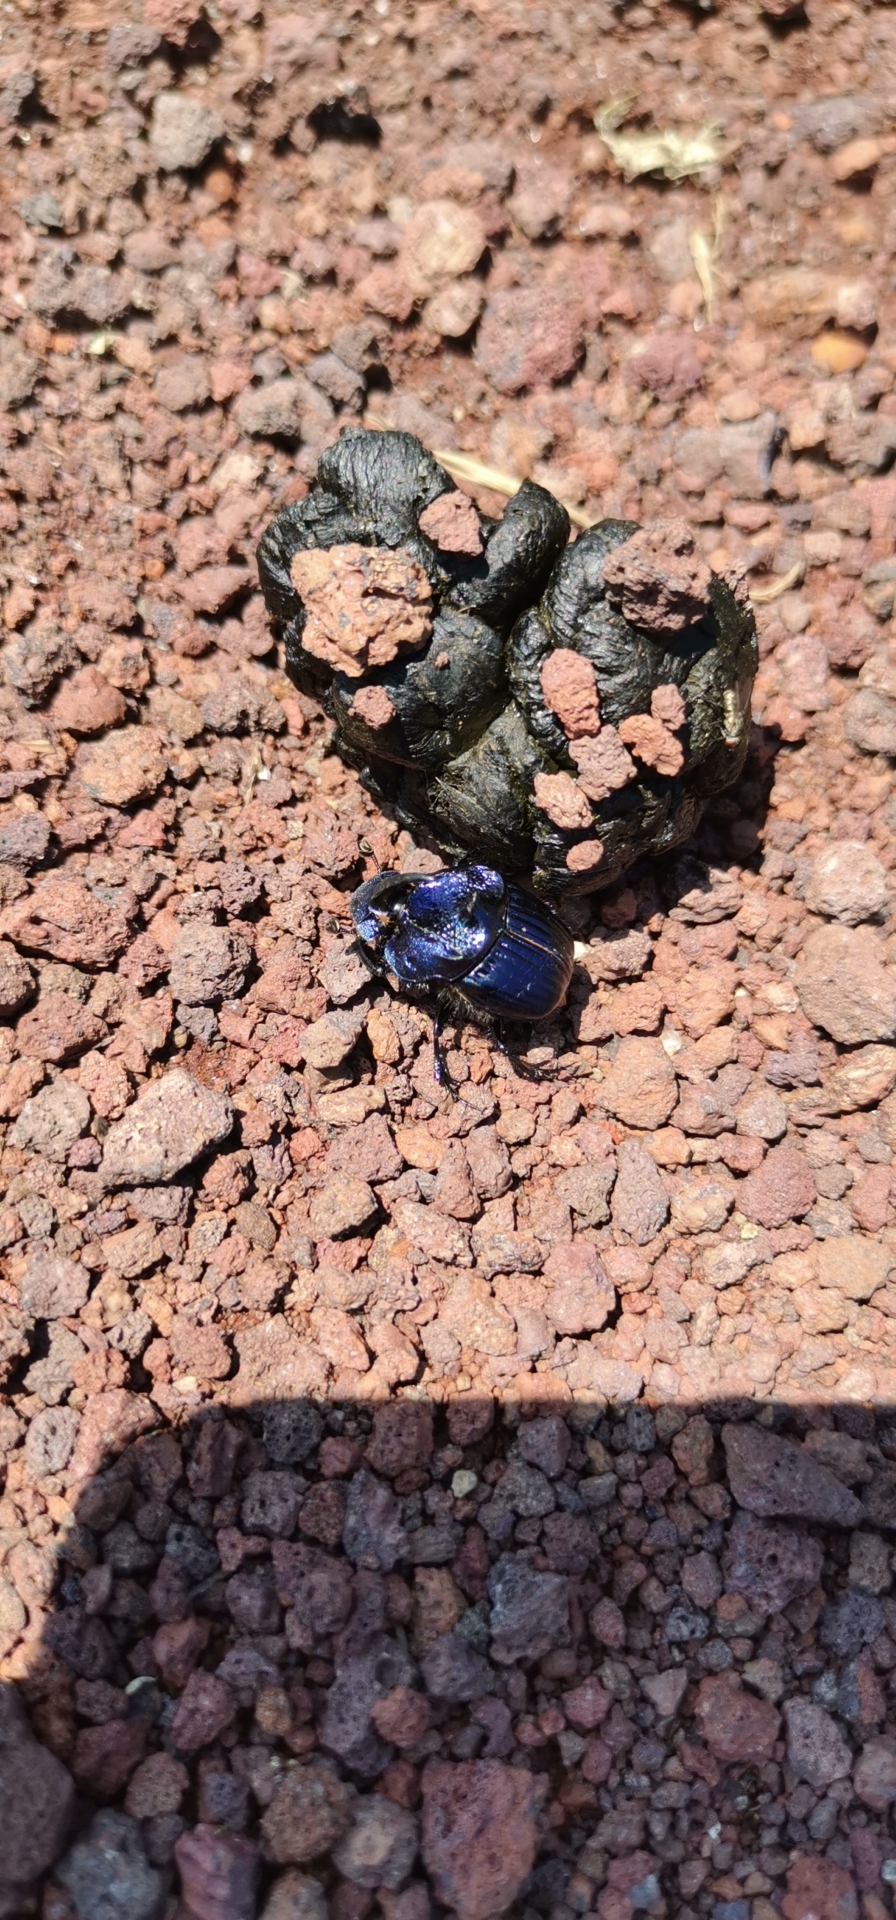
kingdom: Animalia
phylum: Arthropoda
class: Insecta
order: Coleoptera
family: Scarabaeidae
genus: Phanaeus
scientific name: Phanaeus furiosus
